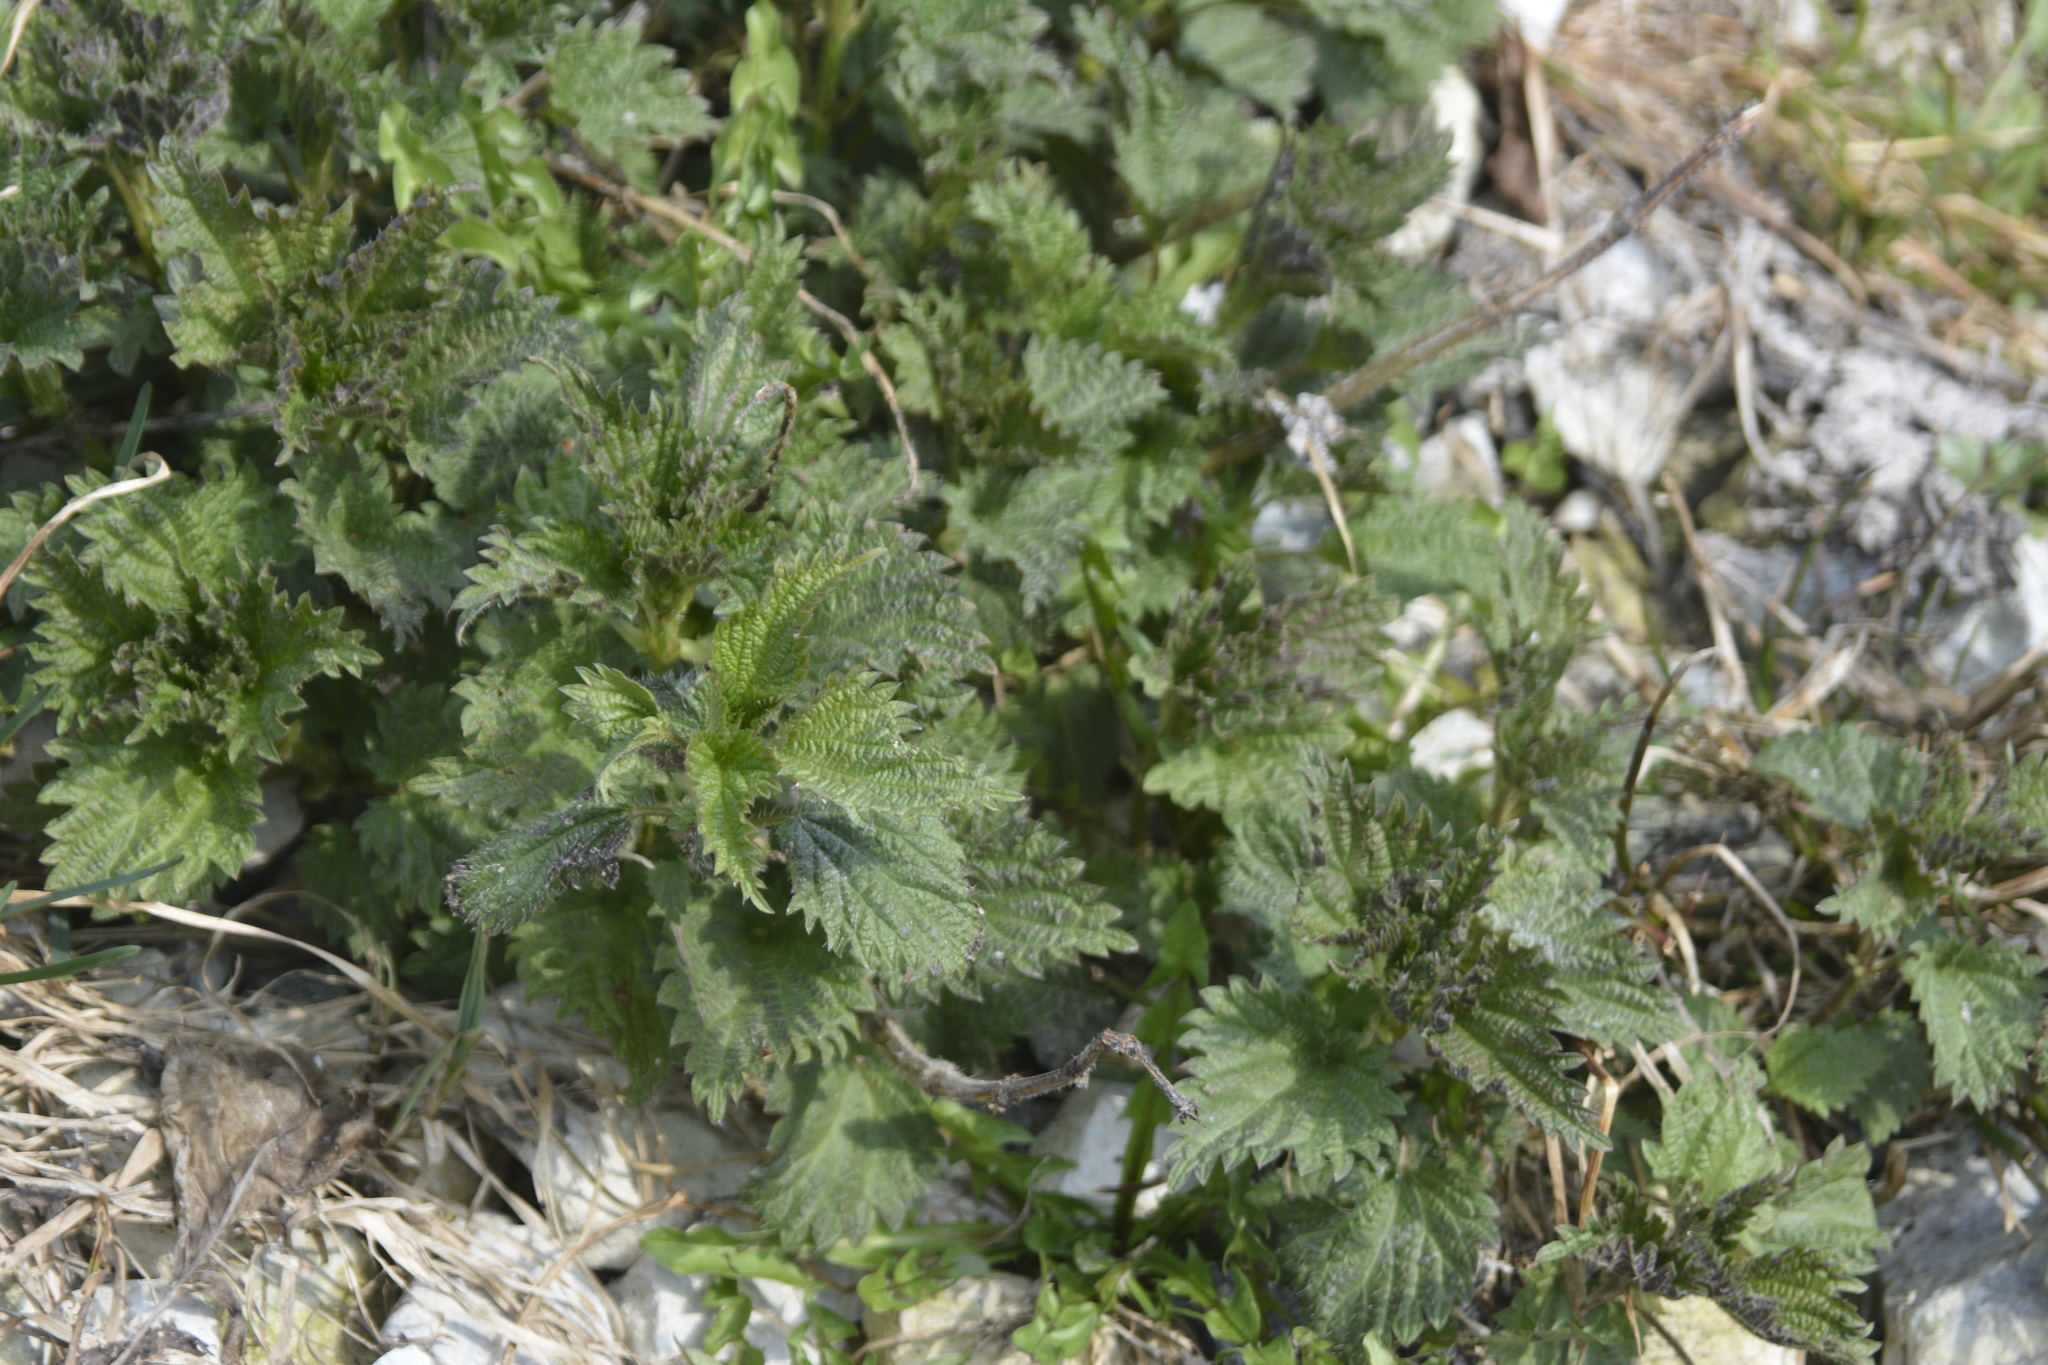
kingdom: Plantae
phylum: Tracheophyta
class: Magnoliopsida
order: Rosales
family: Urticaceae
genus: Urtica
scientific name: Urtica dioica
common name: Common nettle
